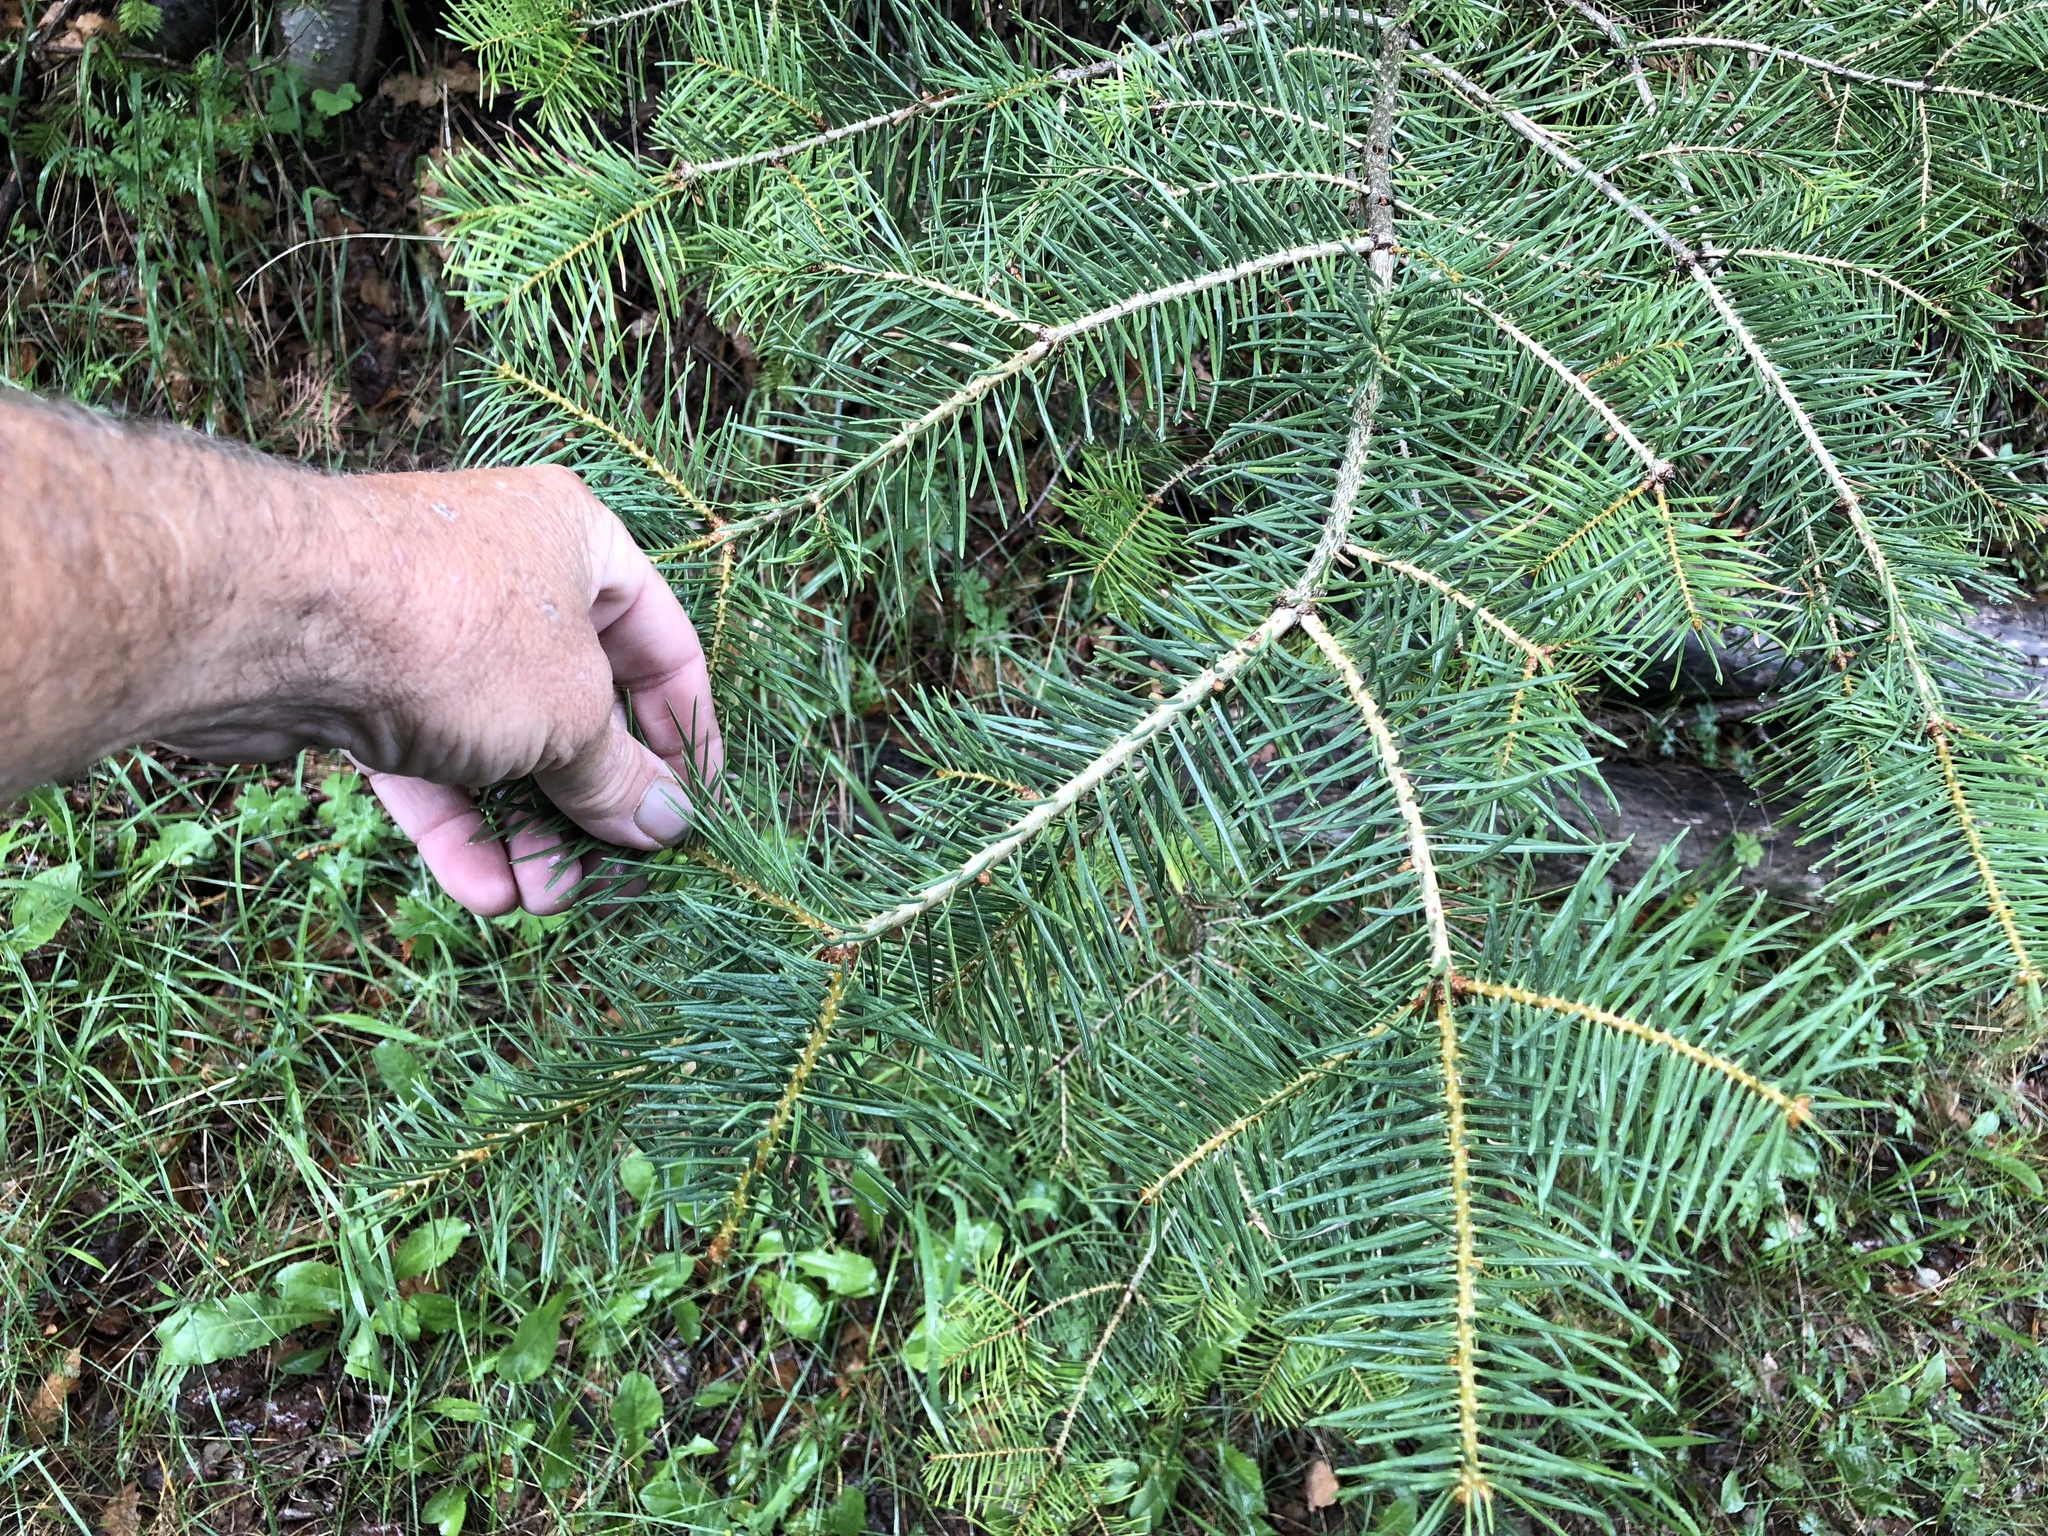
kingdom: Plantae
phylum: Tracheophyta
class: Pinopsida
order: Pinales
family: Pinaceae
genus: Abies
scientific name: Abies concolor
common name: Colorado fir
